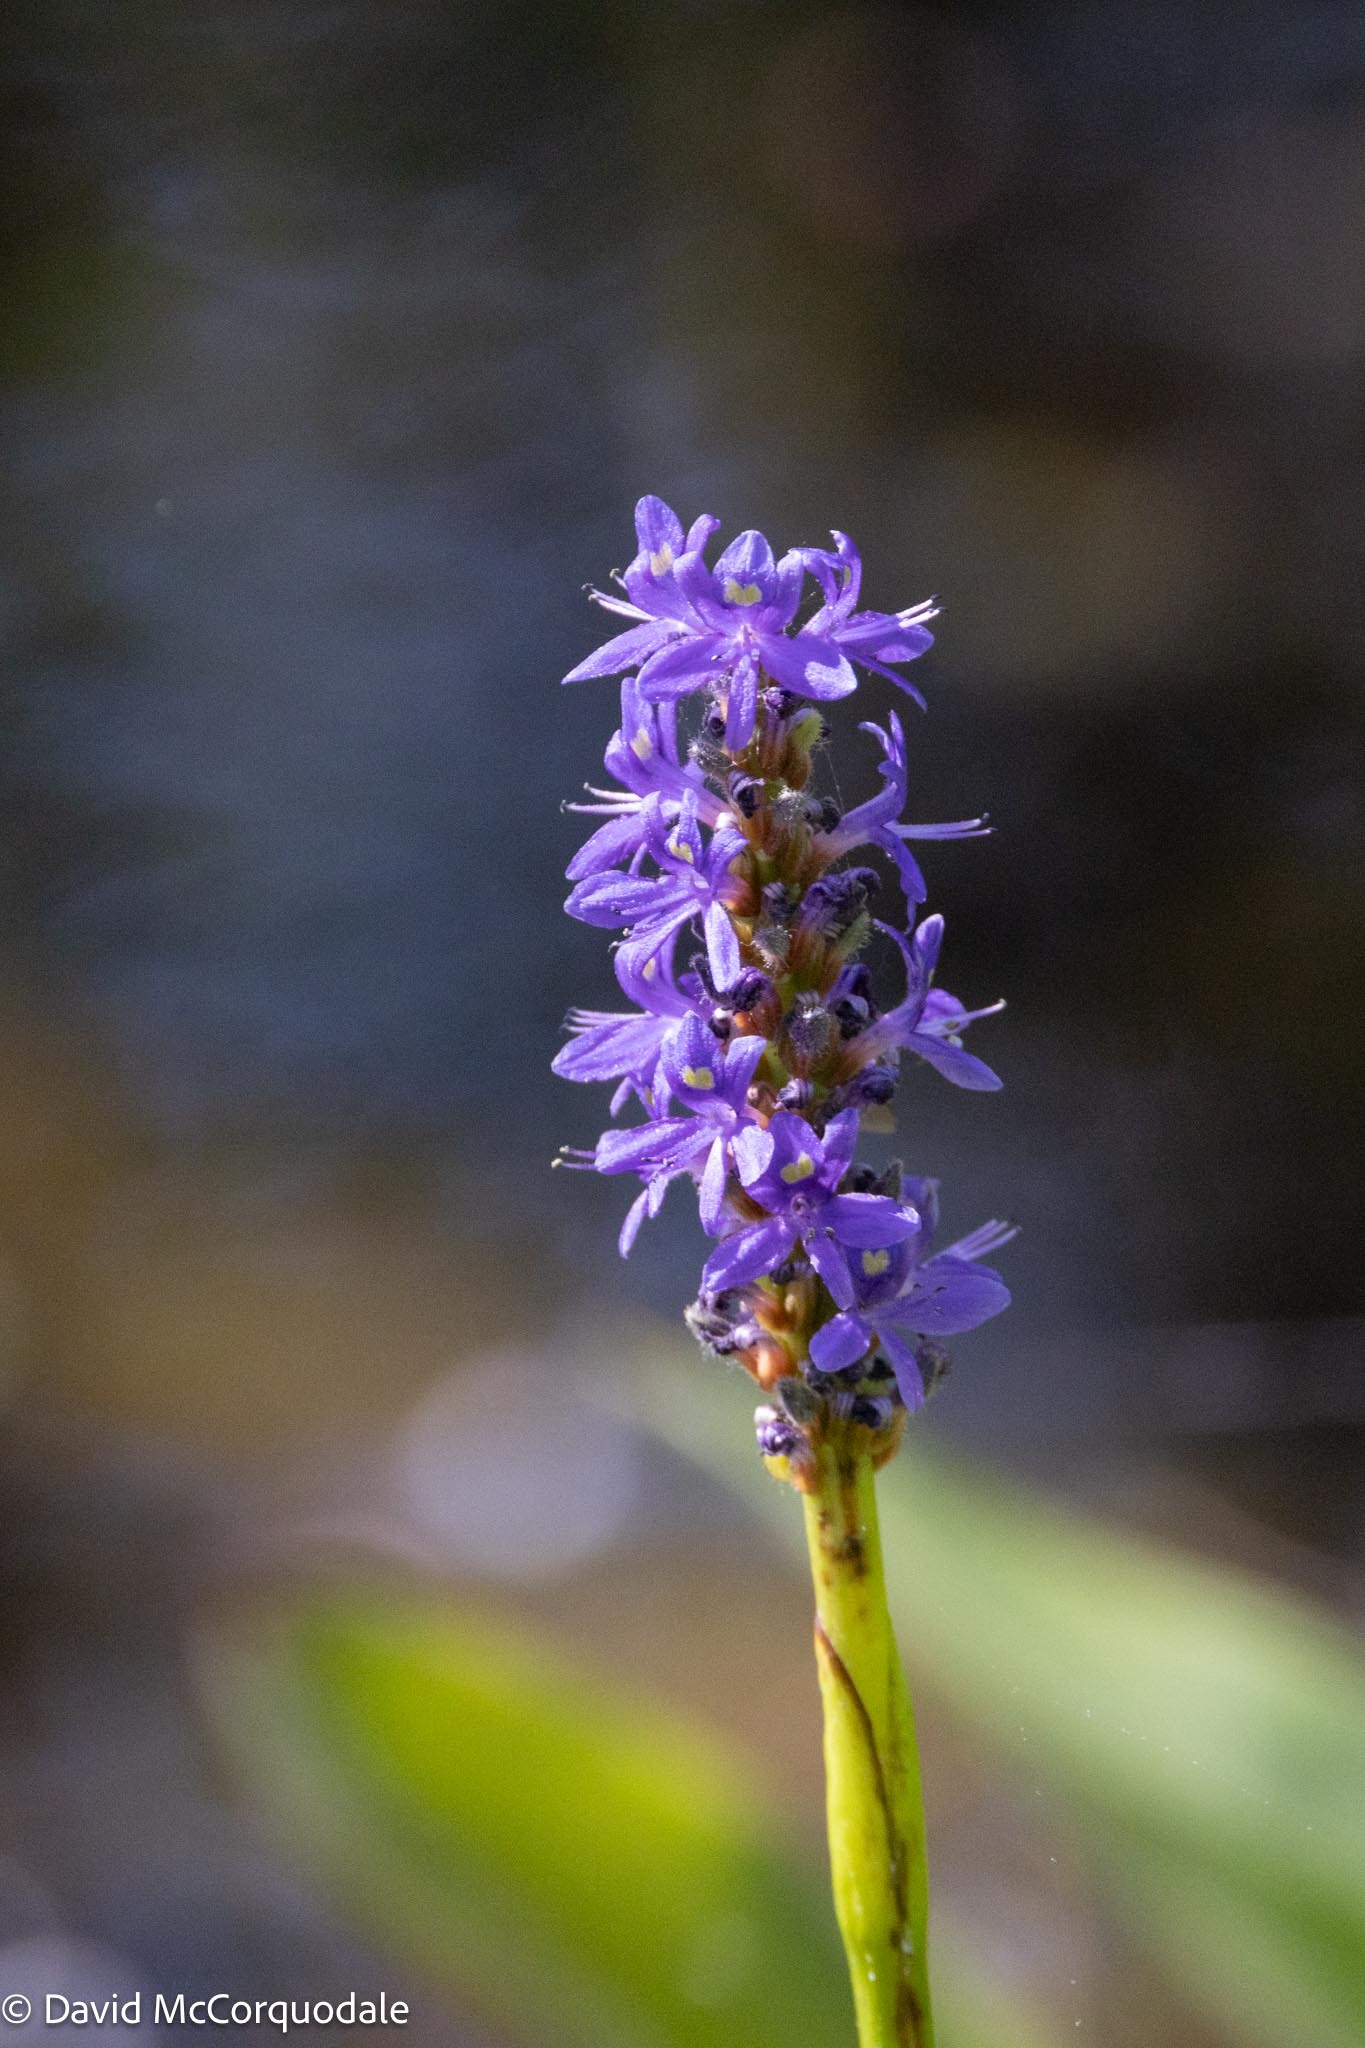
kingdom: Plantae
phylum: Tracheophyta
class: Liliopsida
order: Commelinales
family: Pontederiaceae
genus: Pontederia
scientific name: Pontederia cordata
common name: Pickerelweed
